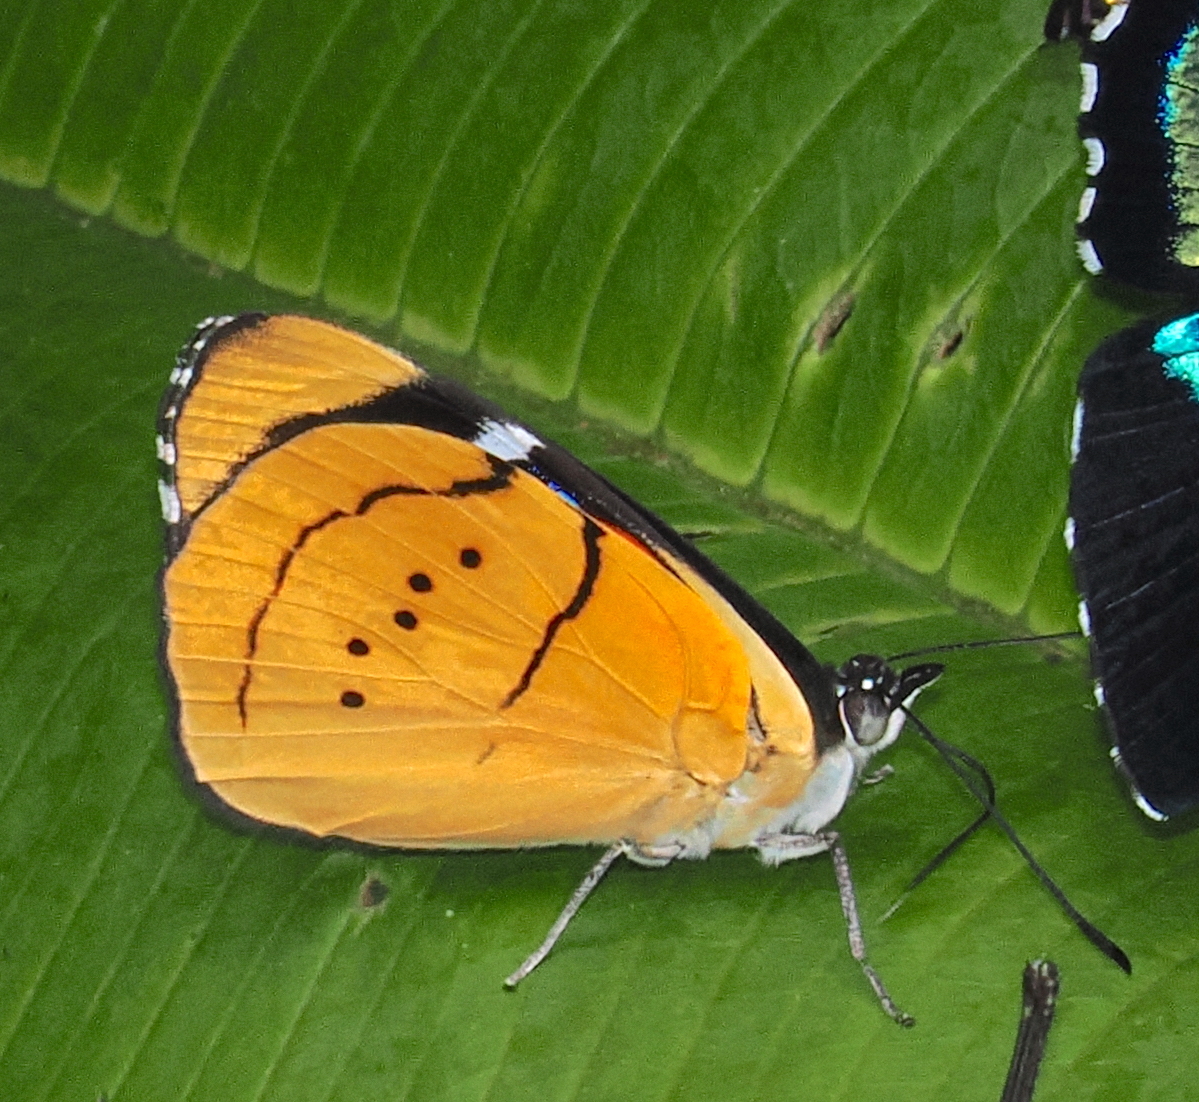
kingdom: Animalia
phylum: Arthropoda
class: Insecta
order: Lepidoptera
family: Nymphalidae
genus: Perisama
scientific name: Perisama humboldtii
